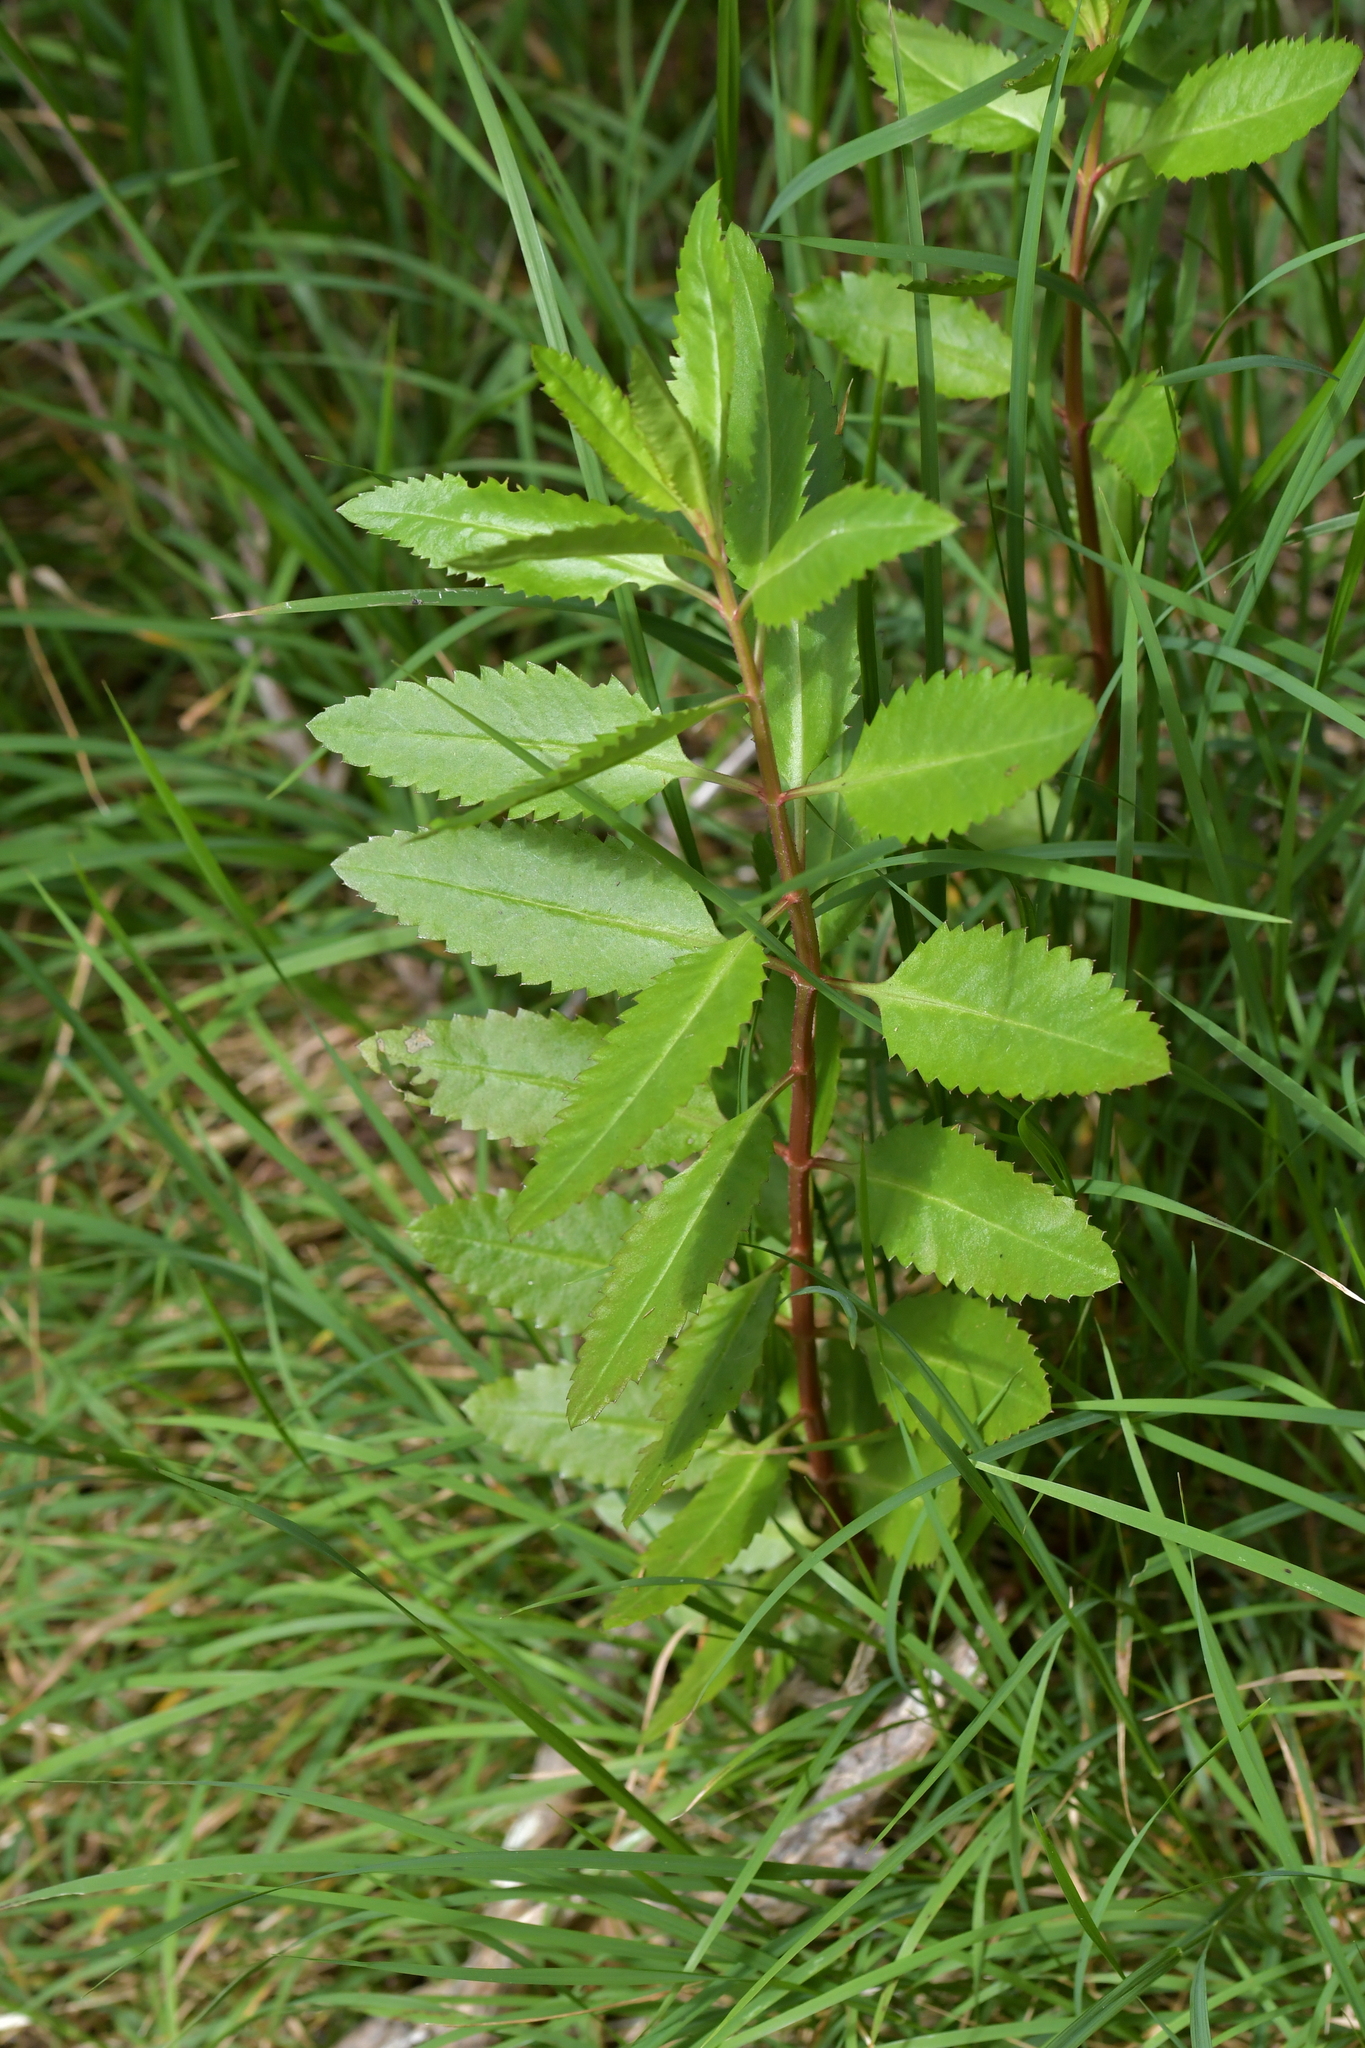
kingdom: Plantae
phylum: Tracheophyta
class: Magnoliopsida
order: Saxifragales
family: Haloragaceae
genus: Haloragis
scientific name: Haloragis erecta
